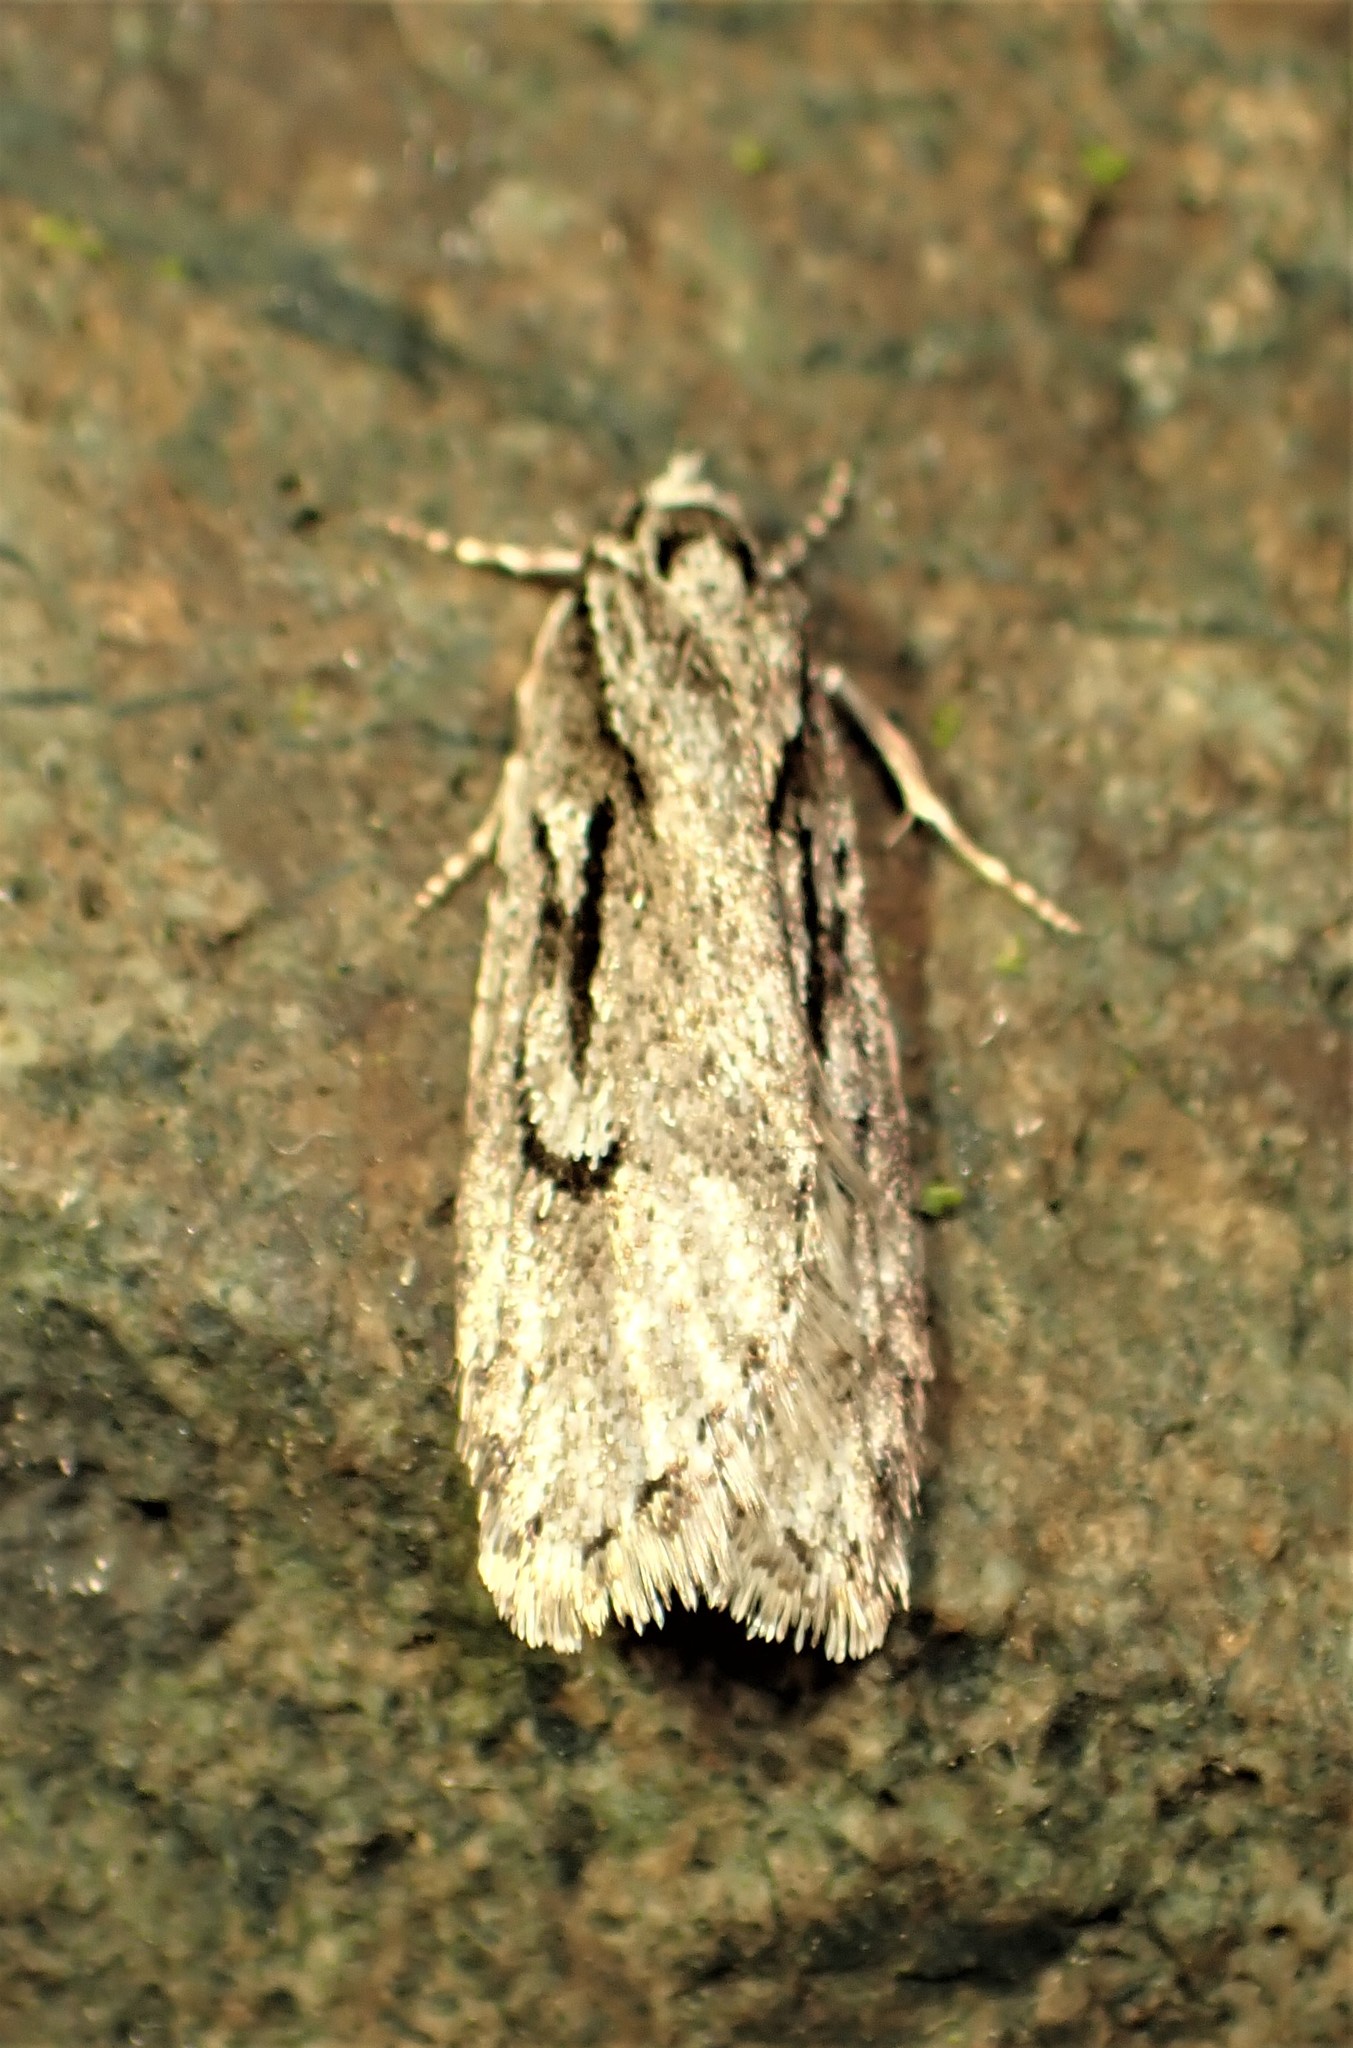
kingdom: Animalia
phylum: Arthropoda
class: Insecta
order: Lepidoptera
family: Depressariidae
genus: Semioscopis
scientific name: Semioscopis aurorella
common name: Aurora flatbody moth
